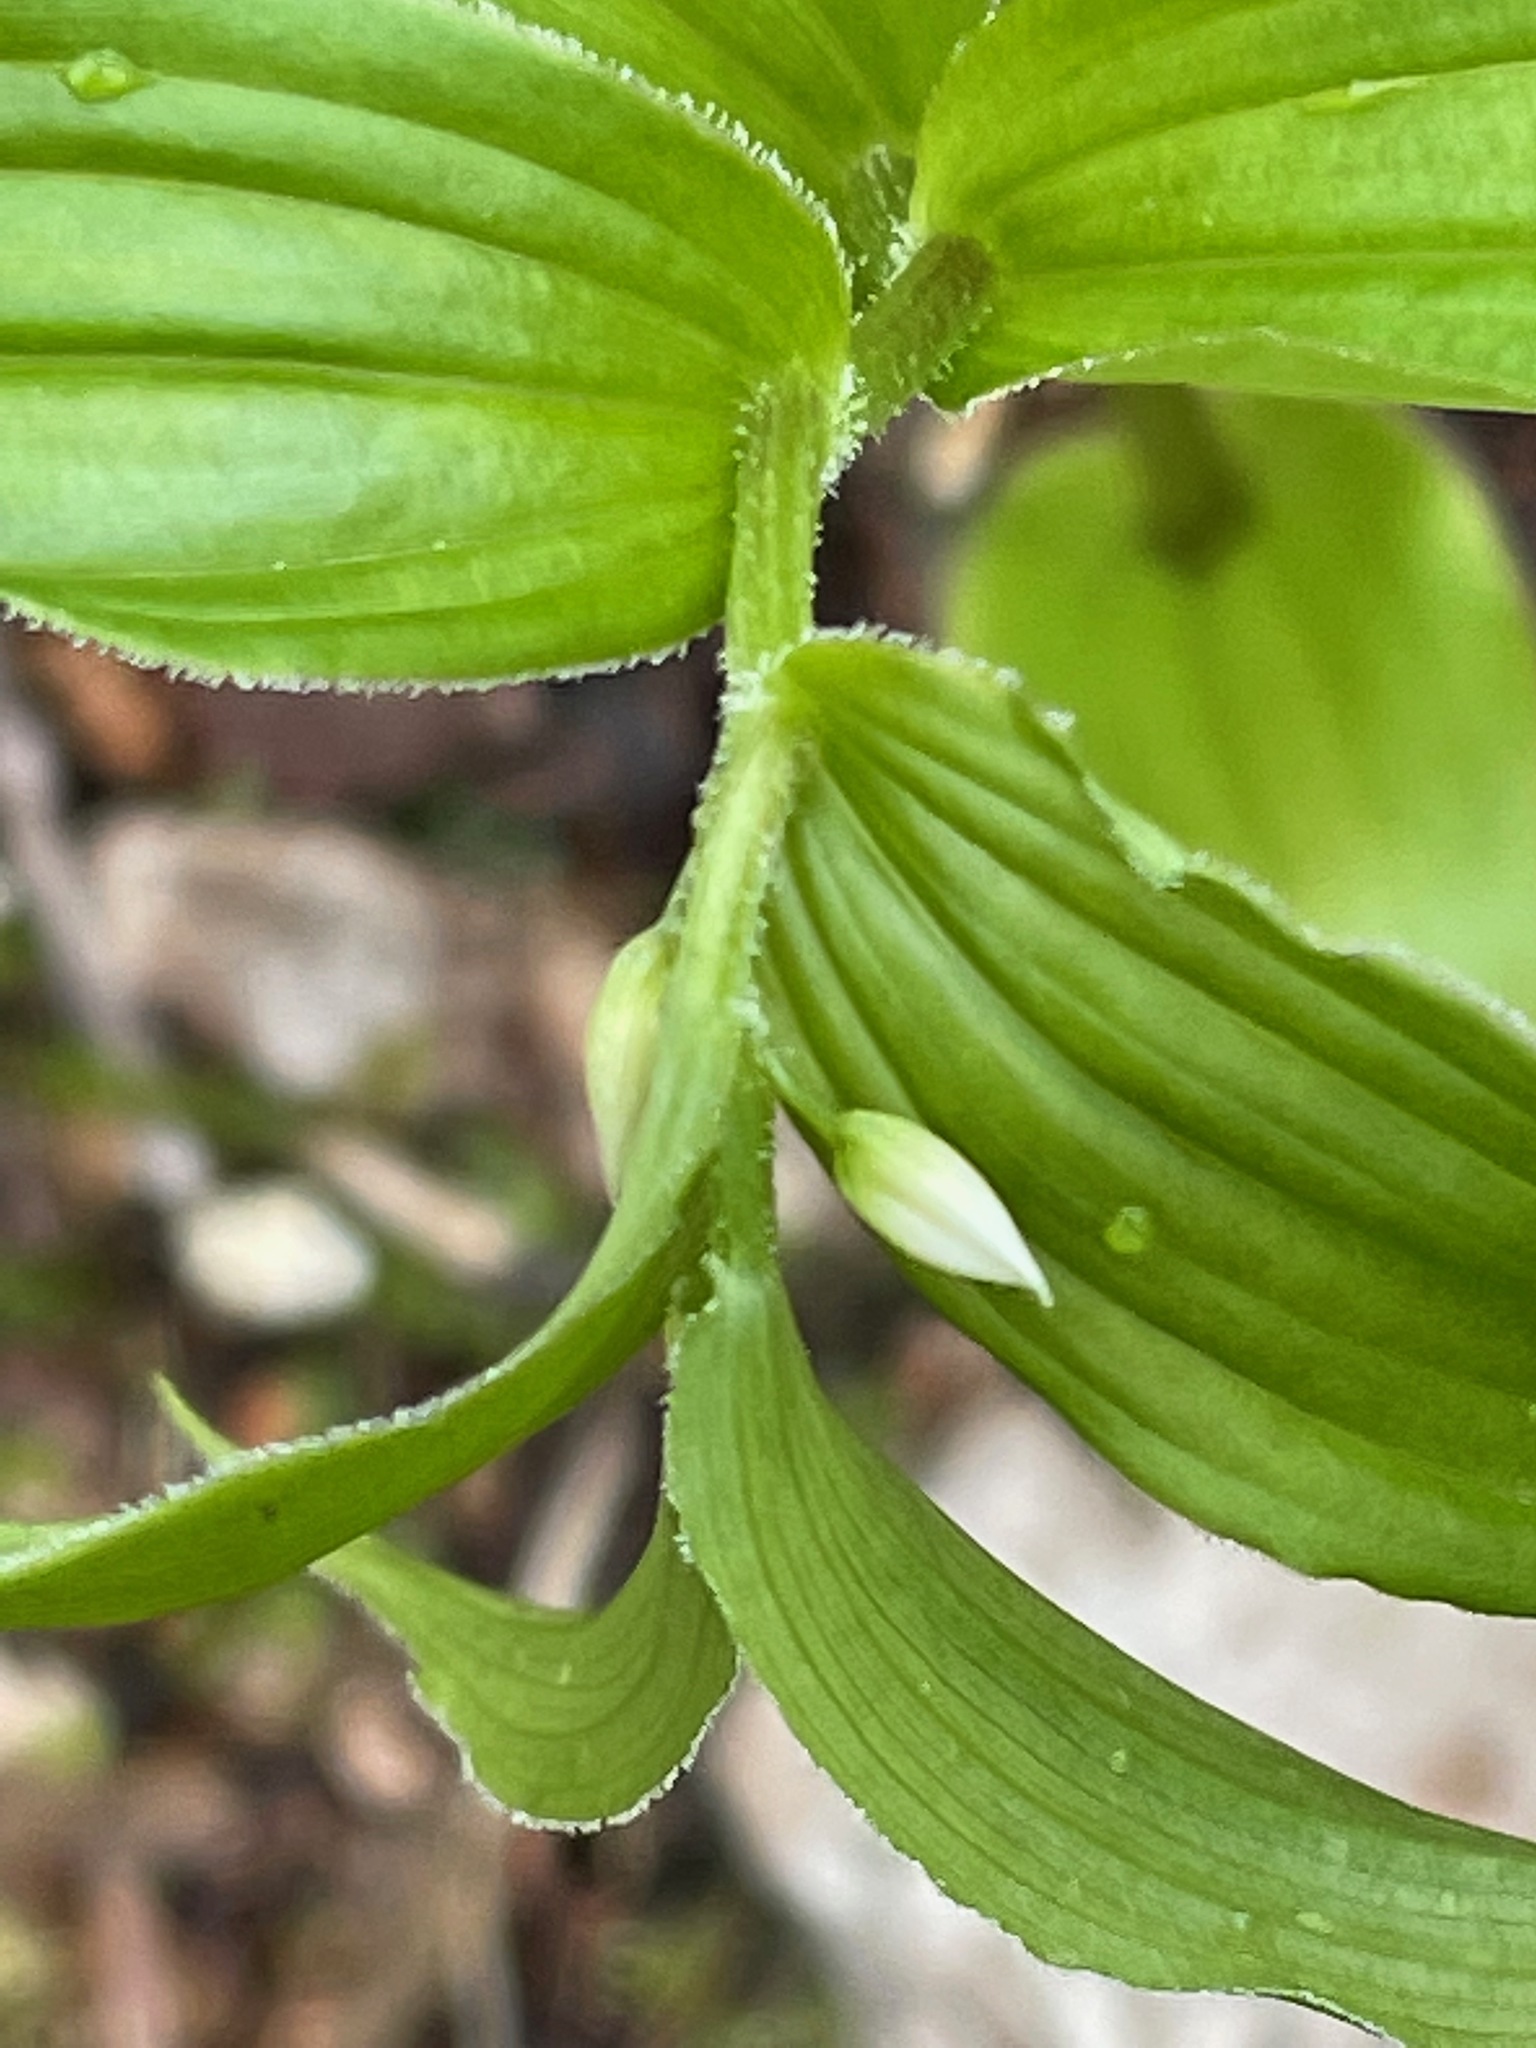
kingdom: Plantae
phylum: Tracheophyta
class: Liliopsida
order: Liliales
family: Liliaceae
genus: Streptopus
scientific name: Streptopus lanceolatus
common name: Rose mandarin
